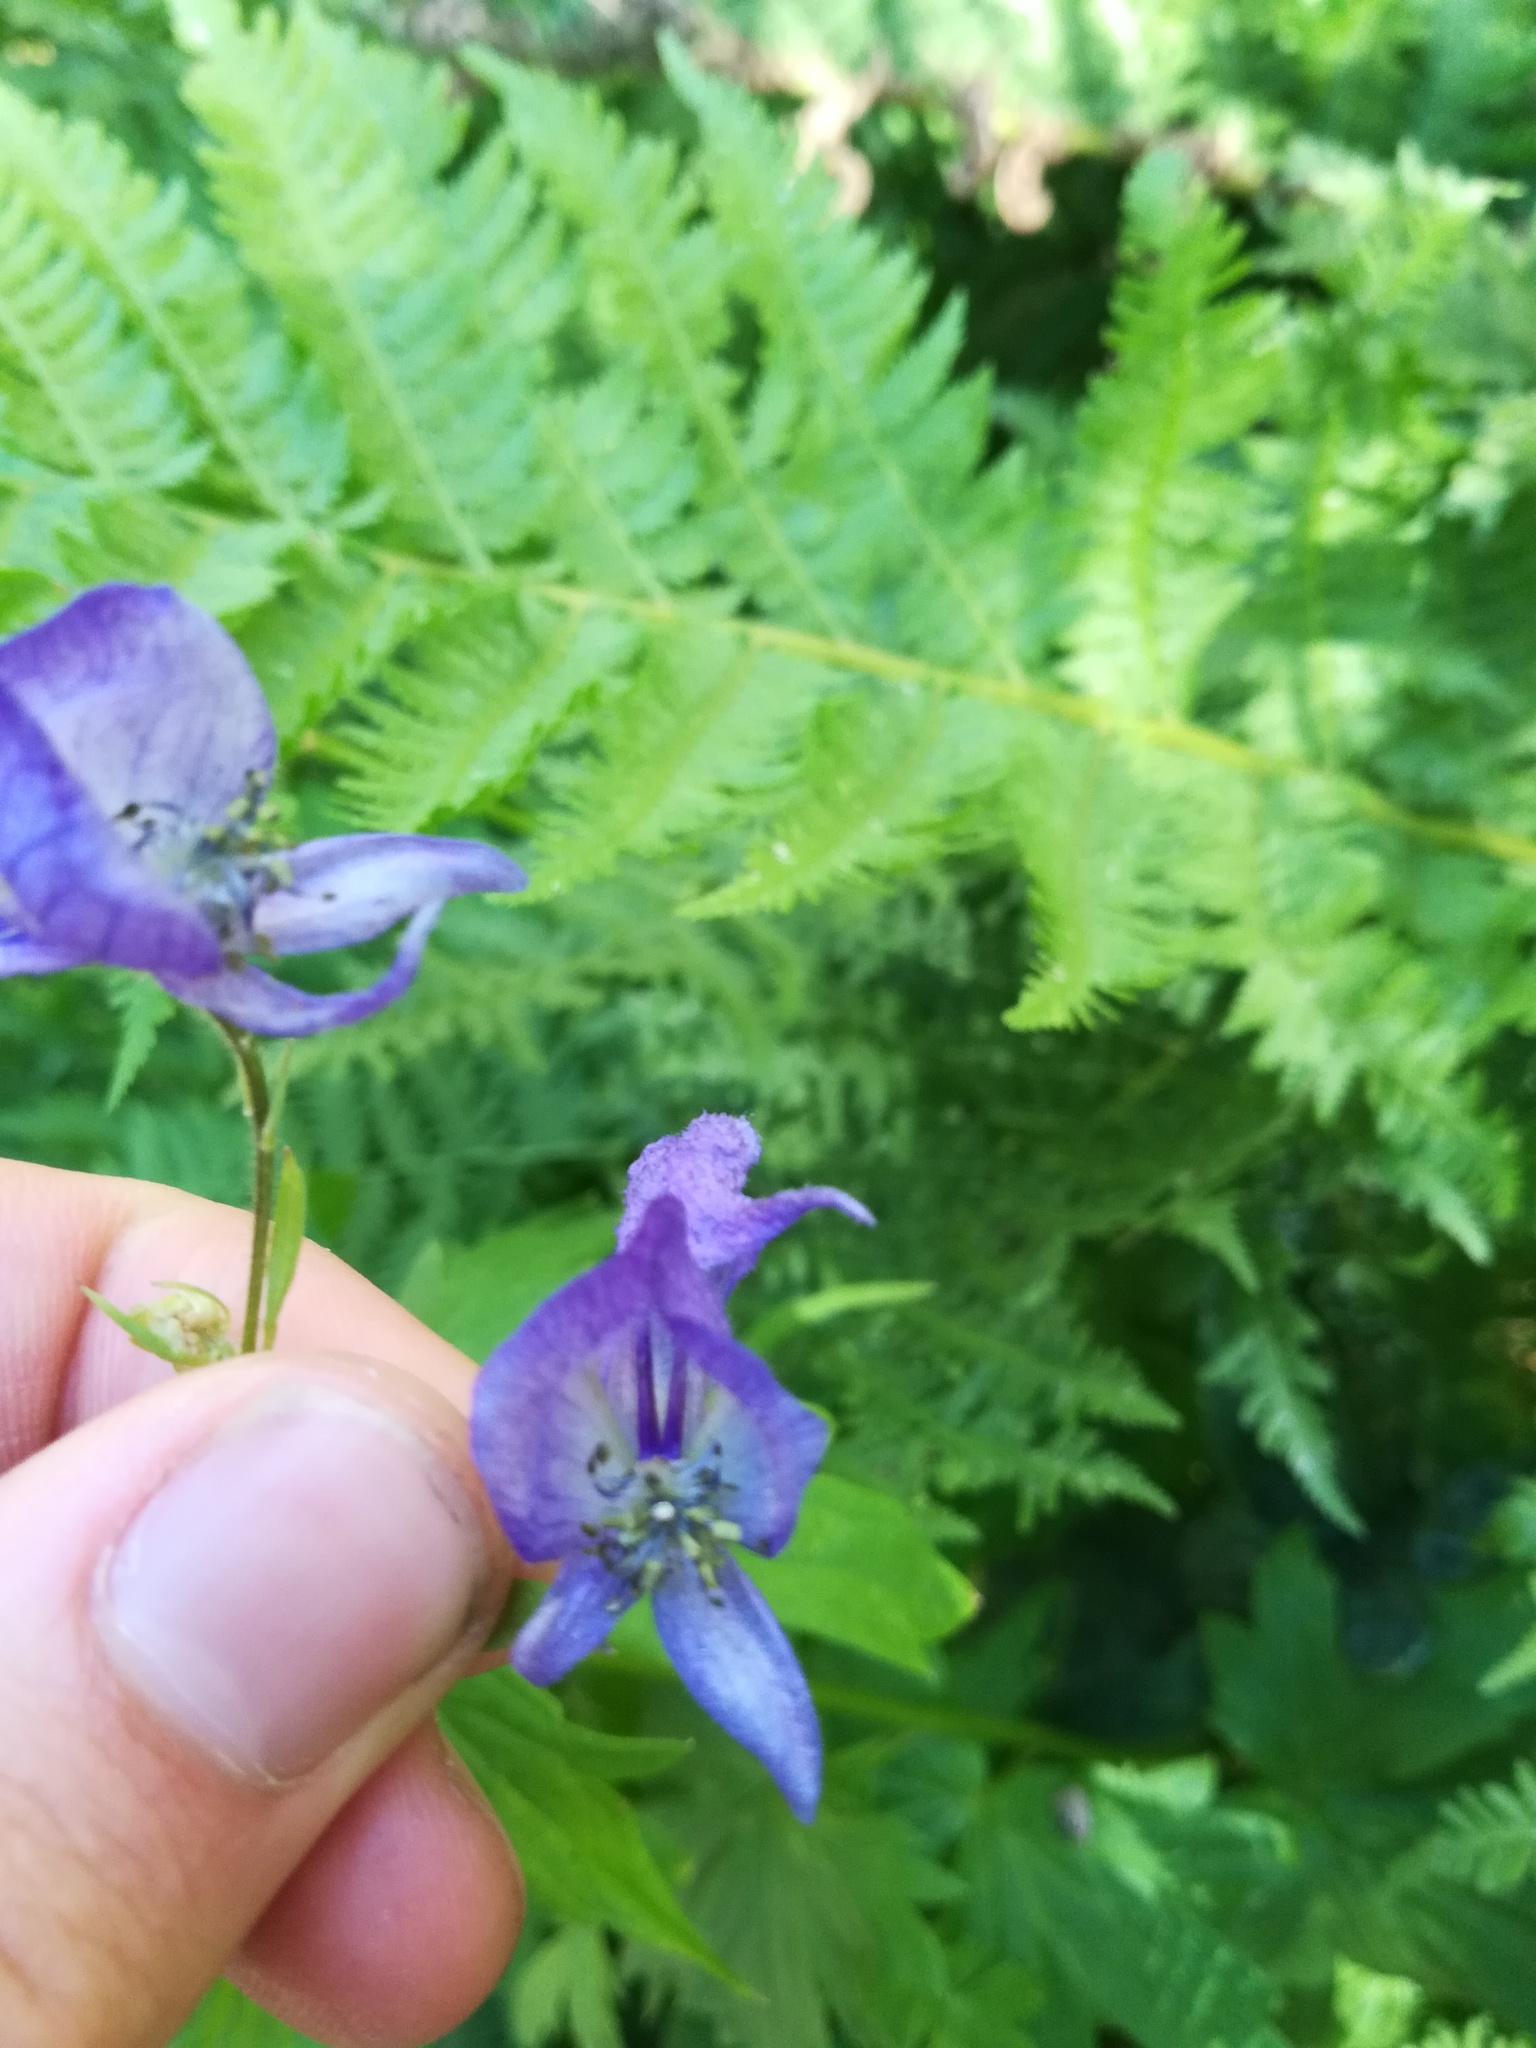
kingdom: Plantae
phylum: Tracheophyta
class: Magnoliopsida
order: Ranunculales
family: Ranunculaceae
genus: Aconitum
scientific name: Aconitum columbianum
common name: Columbia aconite
